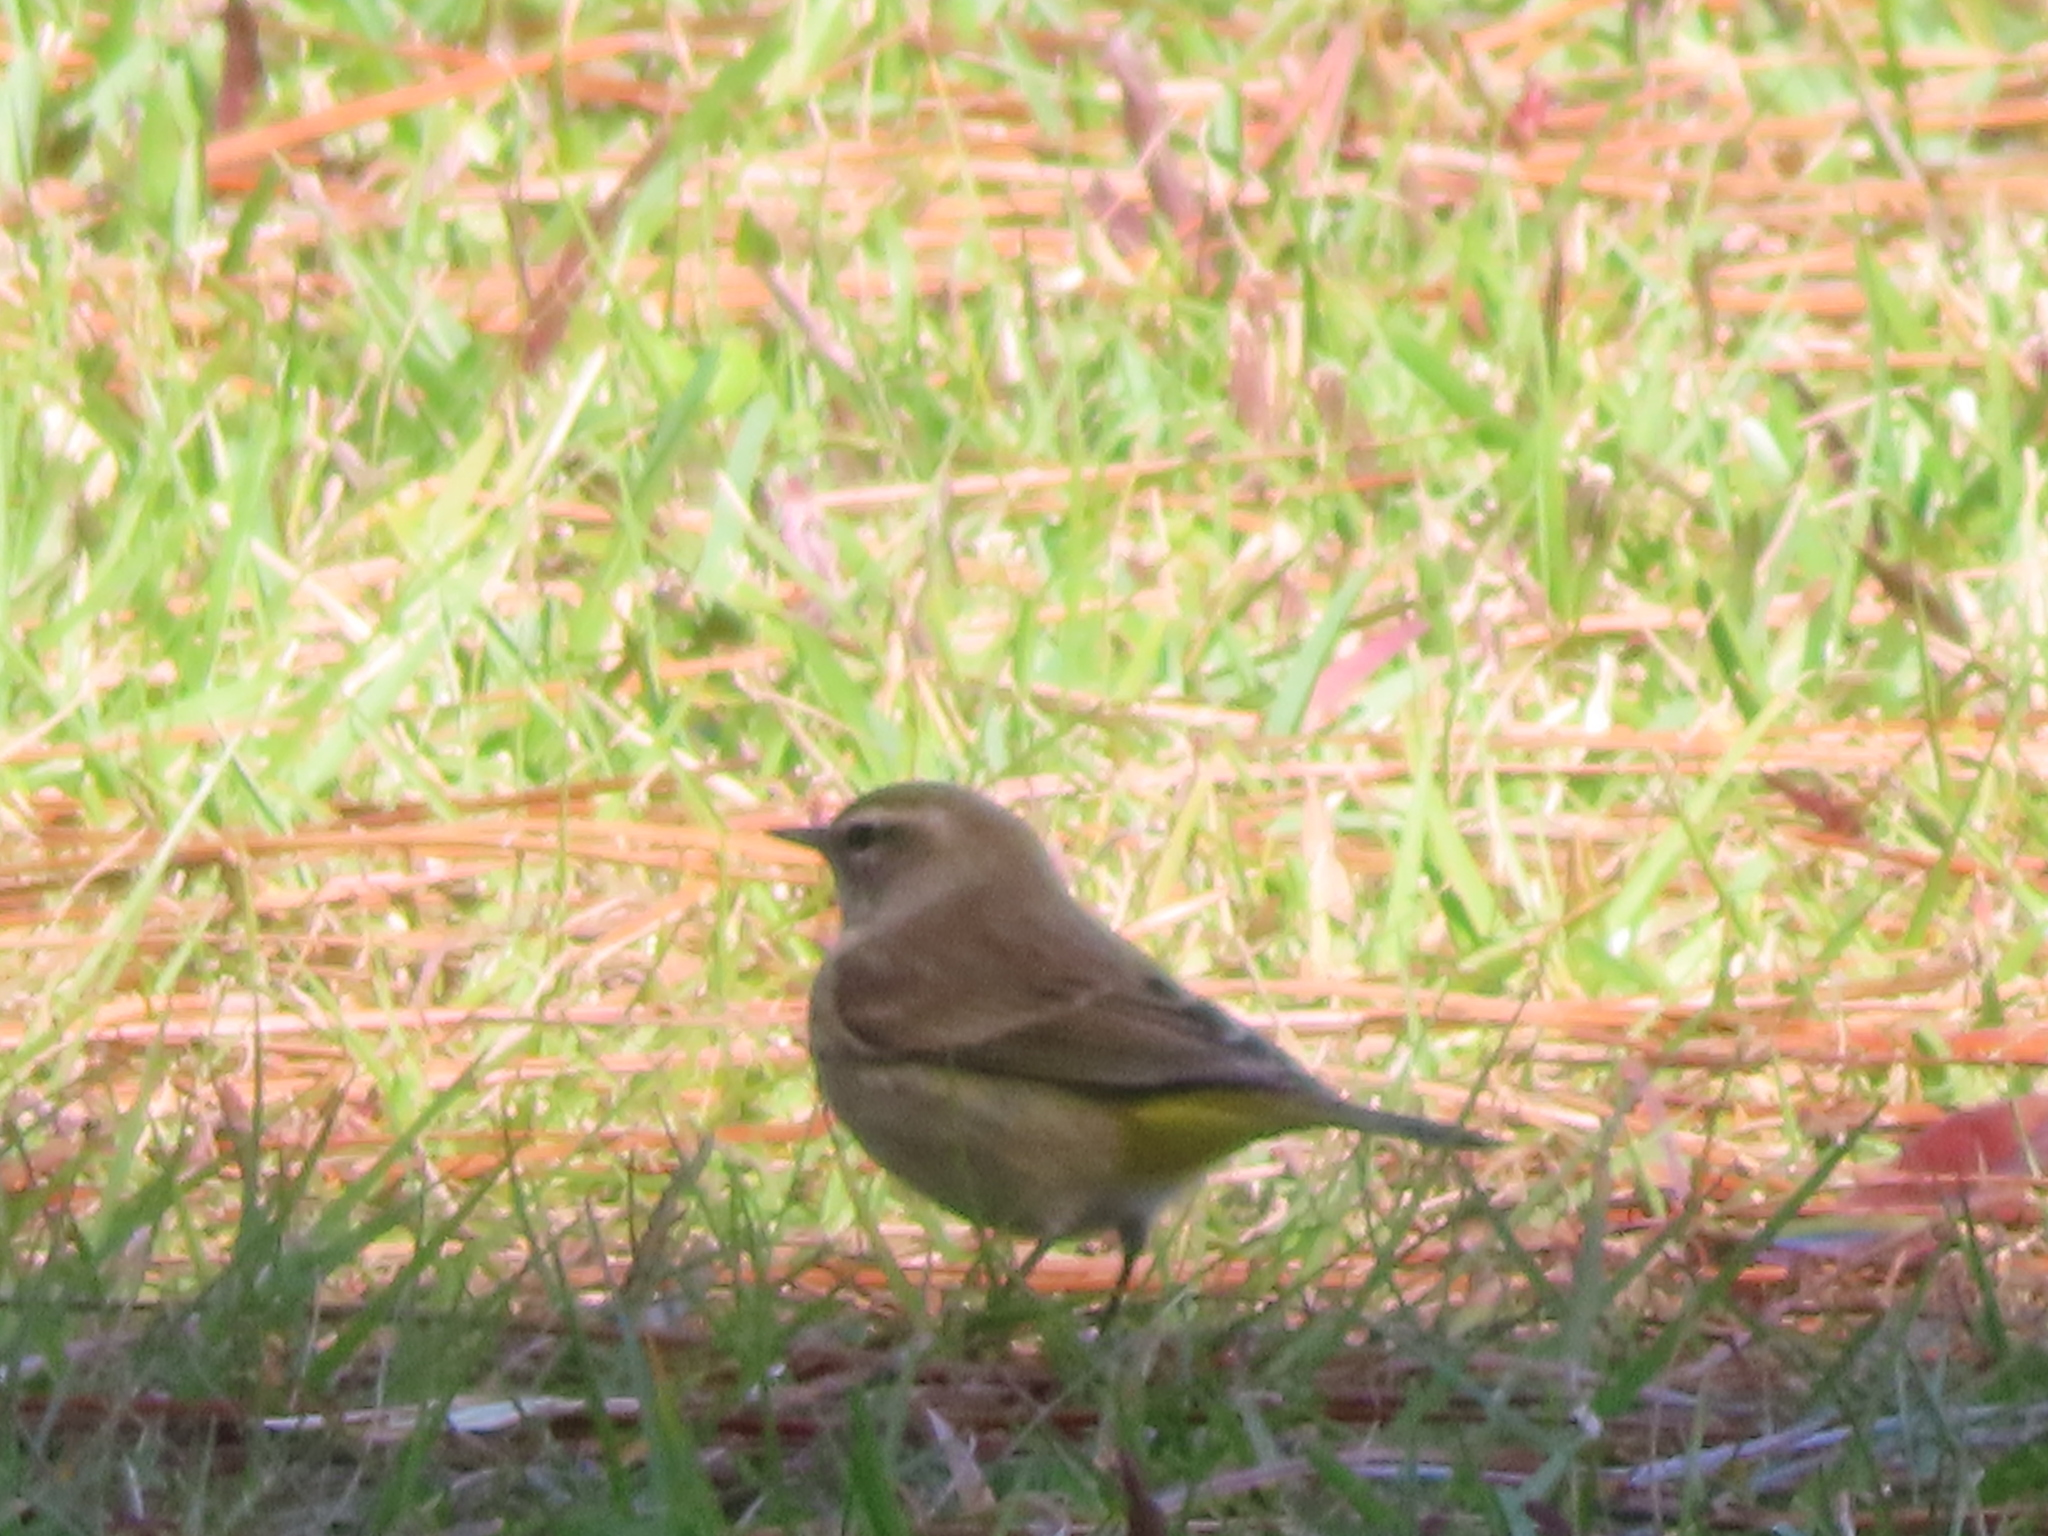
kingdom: Animalia
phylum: Chordata
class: Aves
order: Passeriformes
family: Parulidae
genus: Setophaga
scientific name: Setophaga palmarum
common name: Palm warbler
